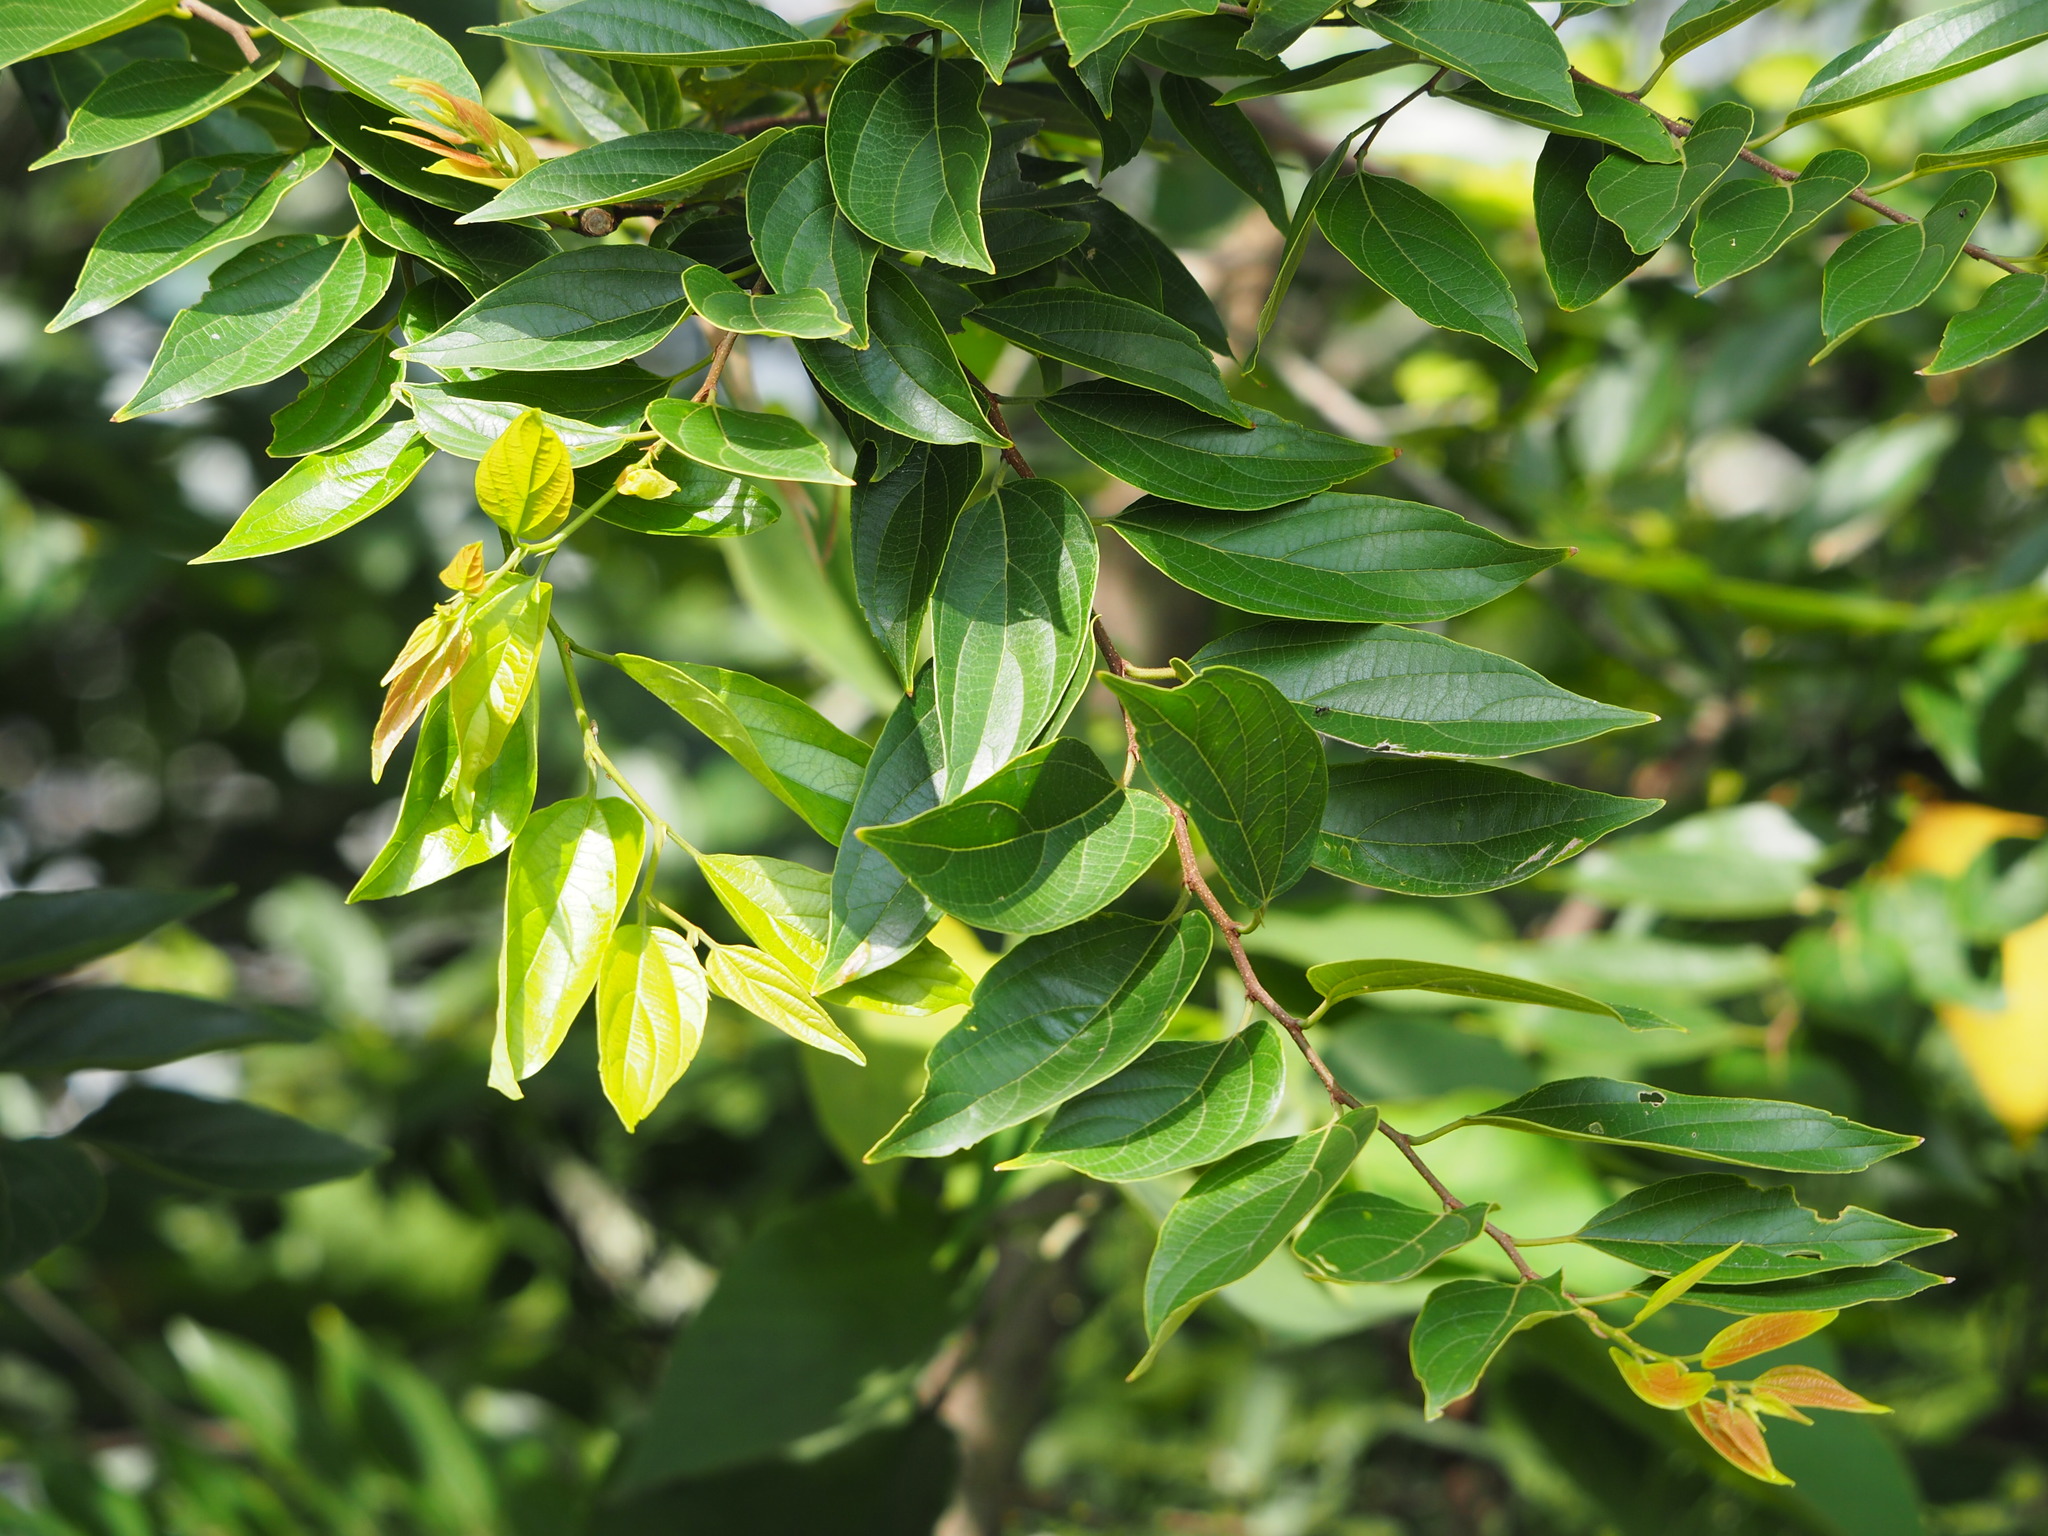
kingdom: Plantae
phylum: Tracheophyta
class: Magnoliopsida
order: Rosales
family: Cannabaceae
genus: Celtis
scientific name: Celtis sinensis
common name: Chinese hackberry
